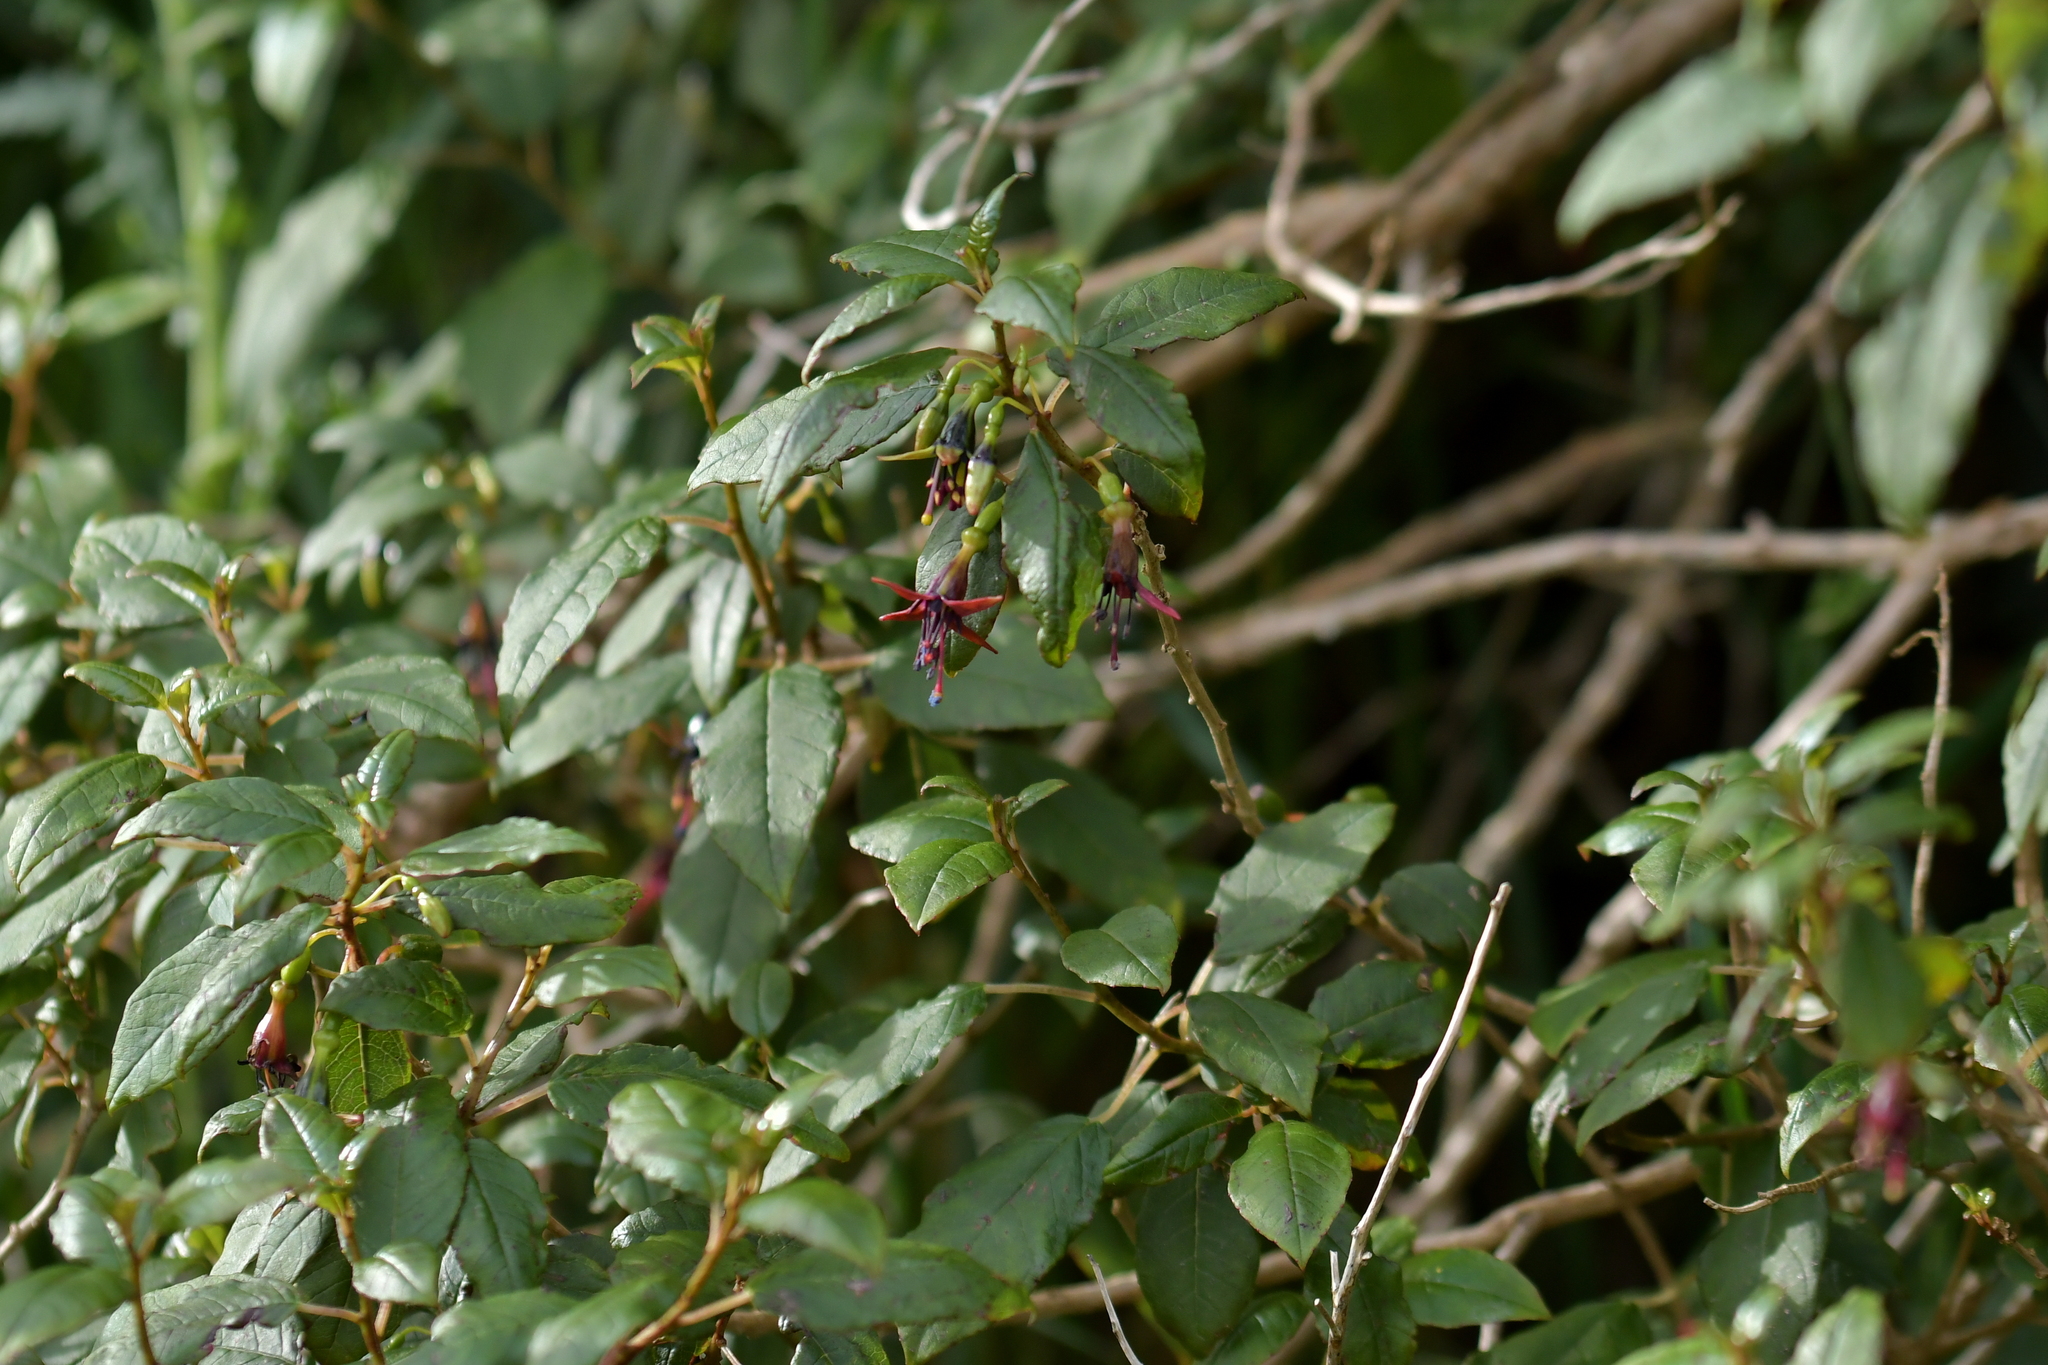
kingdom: Plantae
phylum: Tracheophyta
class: Magnoliopsida
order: Myrtales
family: Onagraceae
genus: Fuchsia
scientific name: Fuchsia excorticata
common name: Tree fuchsia
